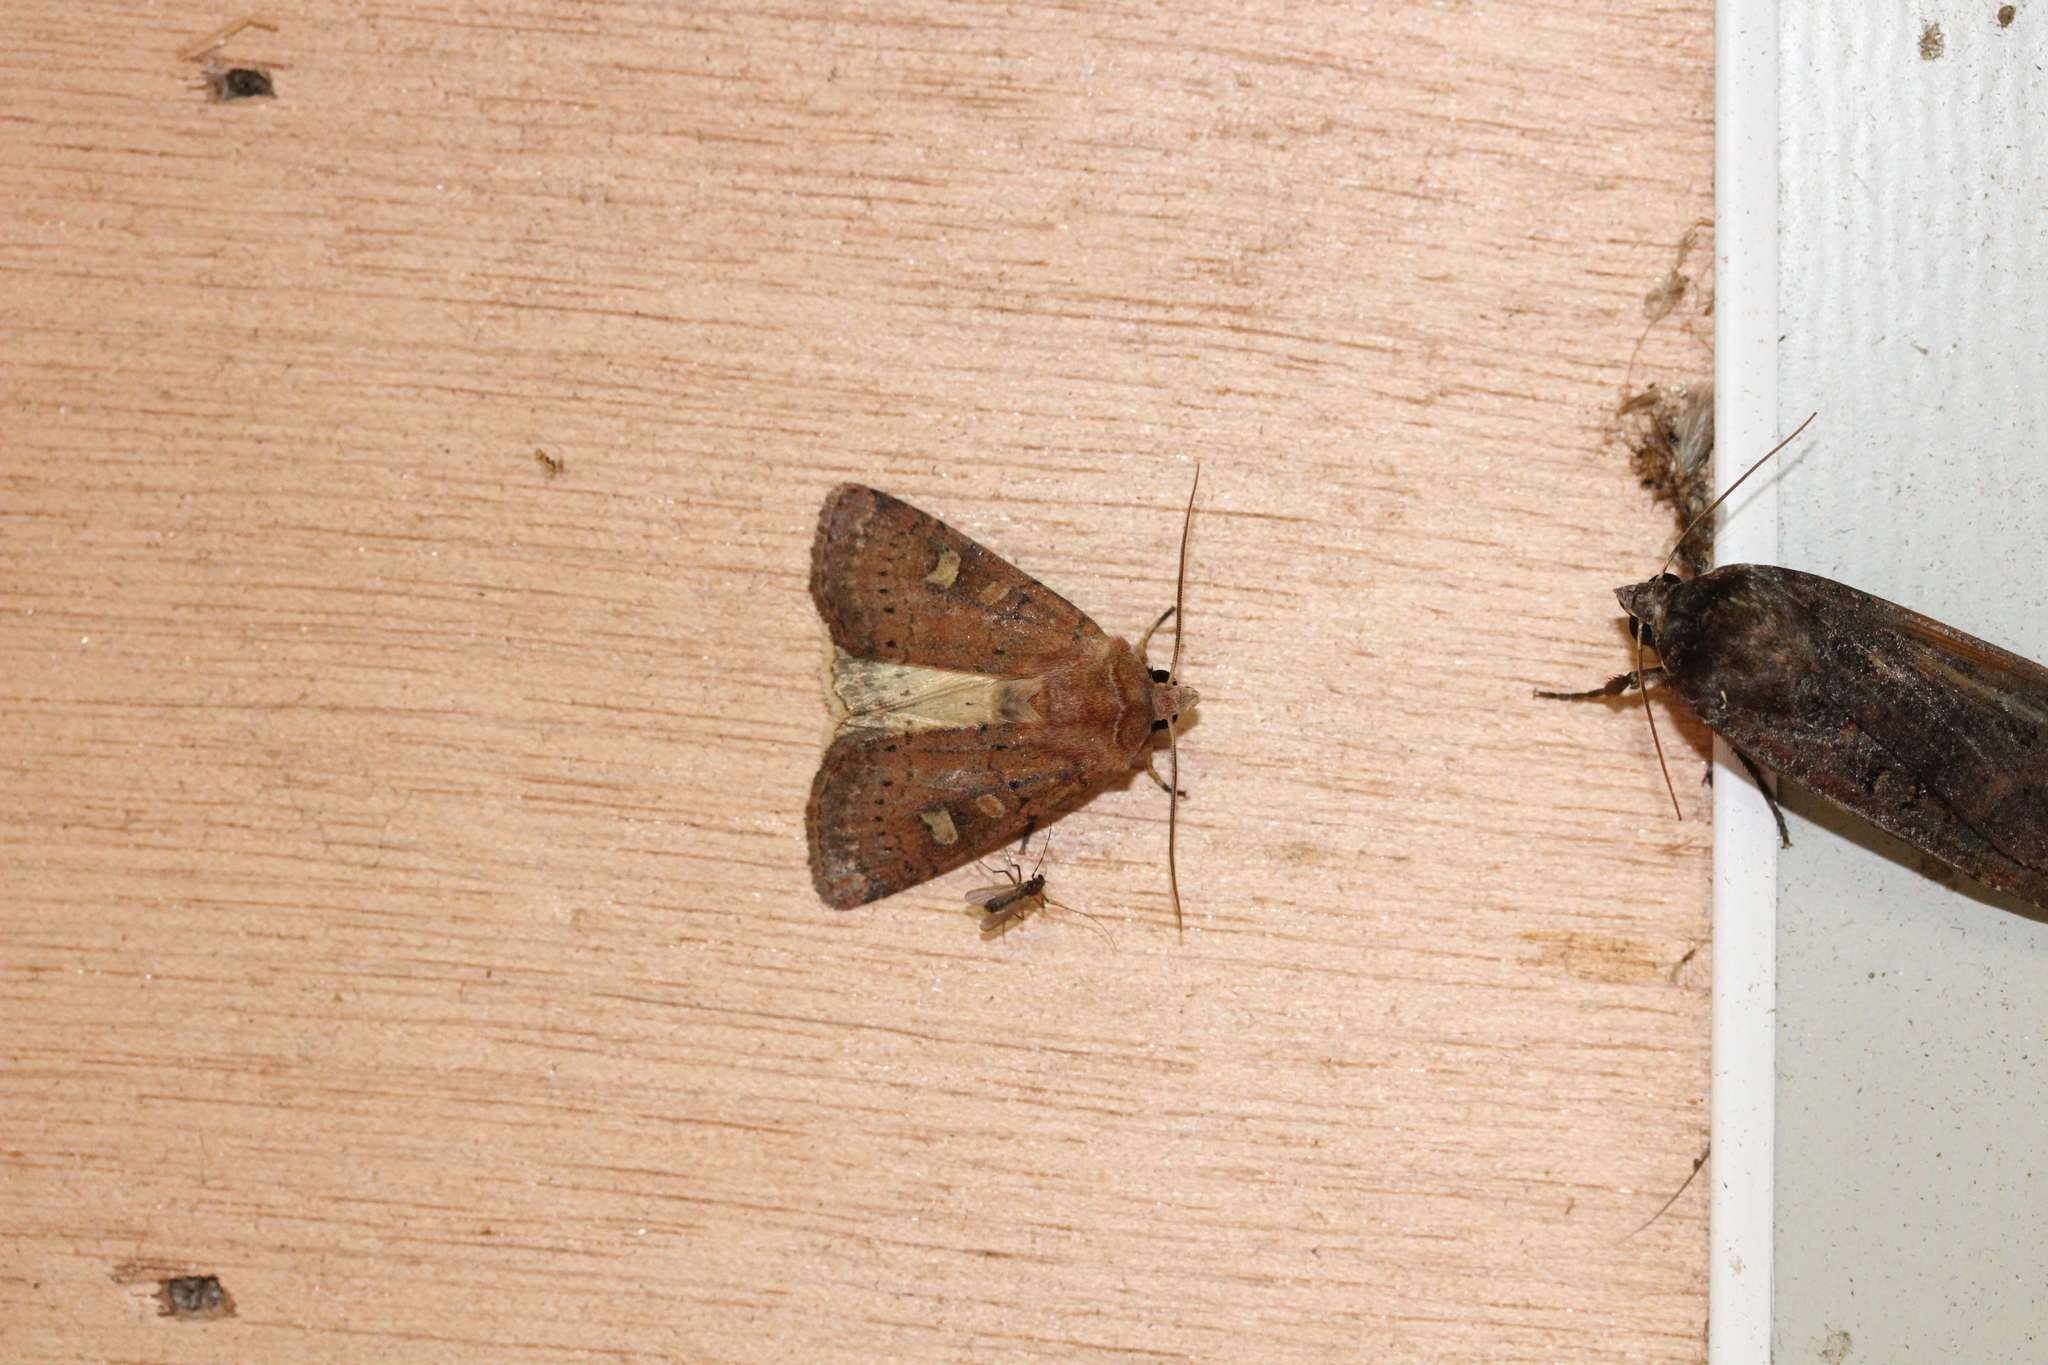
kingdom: Animalia
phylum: Arthropoda
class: Insecta
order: Lepidoptera
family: Noctuidae
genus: Xestia
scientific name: Xestia xanthographa
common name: Square-spot rustic
